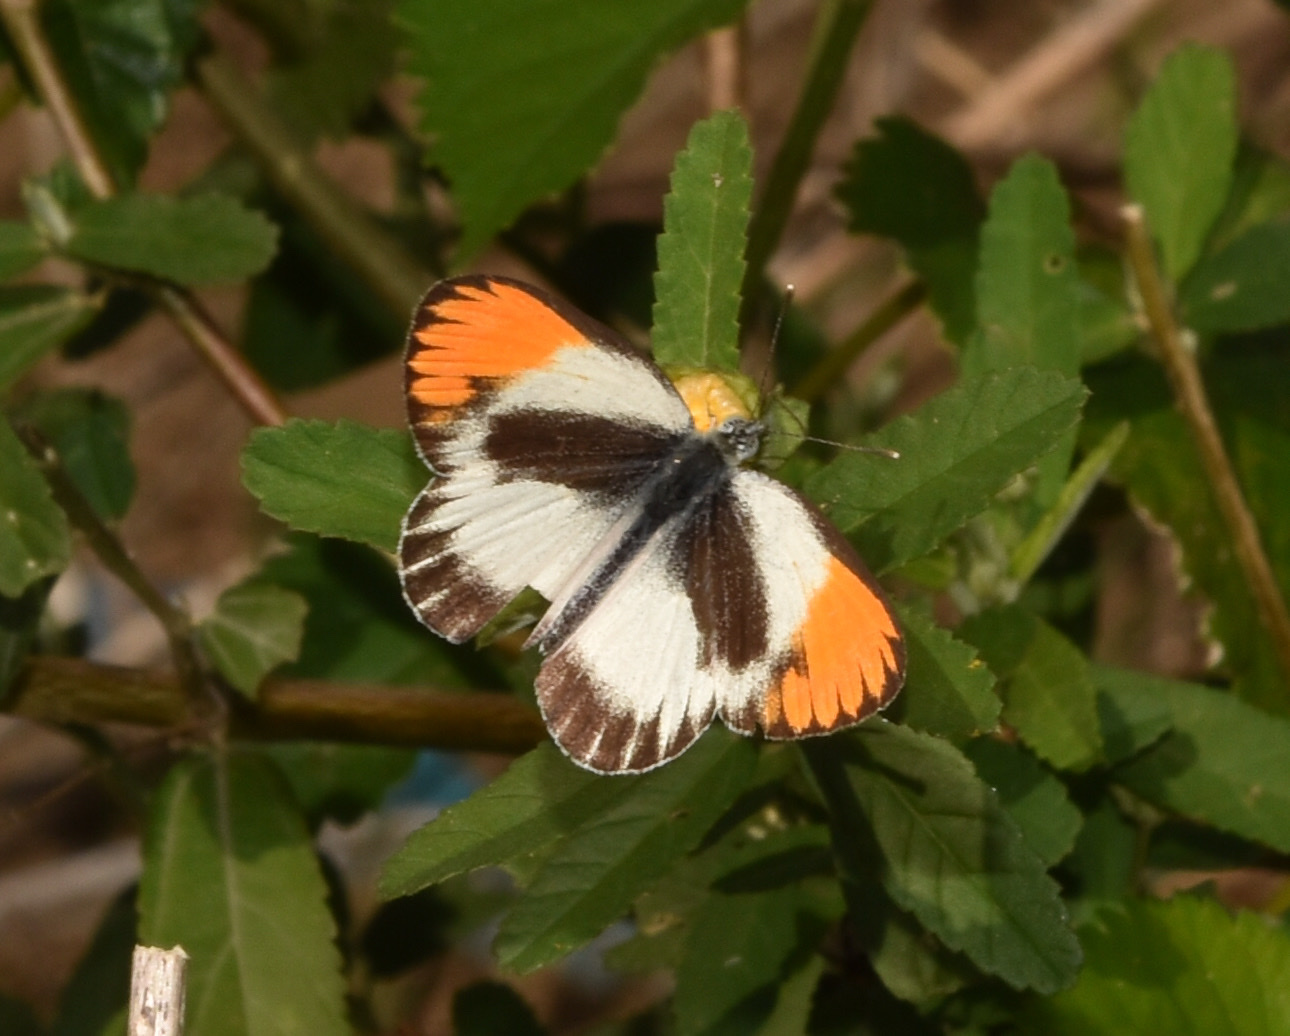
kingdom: Animalia
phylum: Arthropoda
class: Insecta
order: Lepidoptera
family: Pieridae
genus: Colotis
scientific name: Colotis evagore
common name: Desert orange-tip
